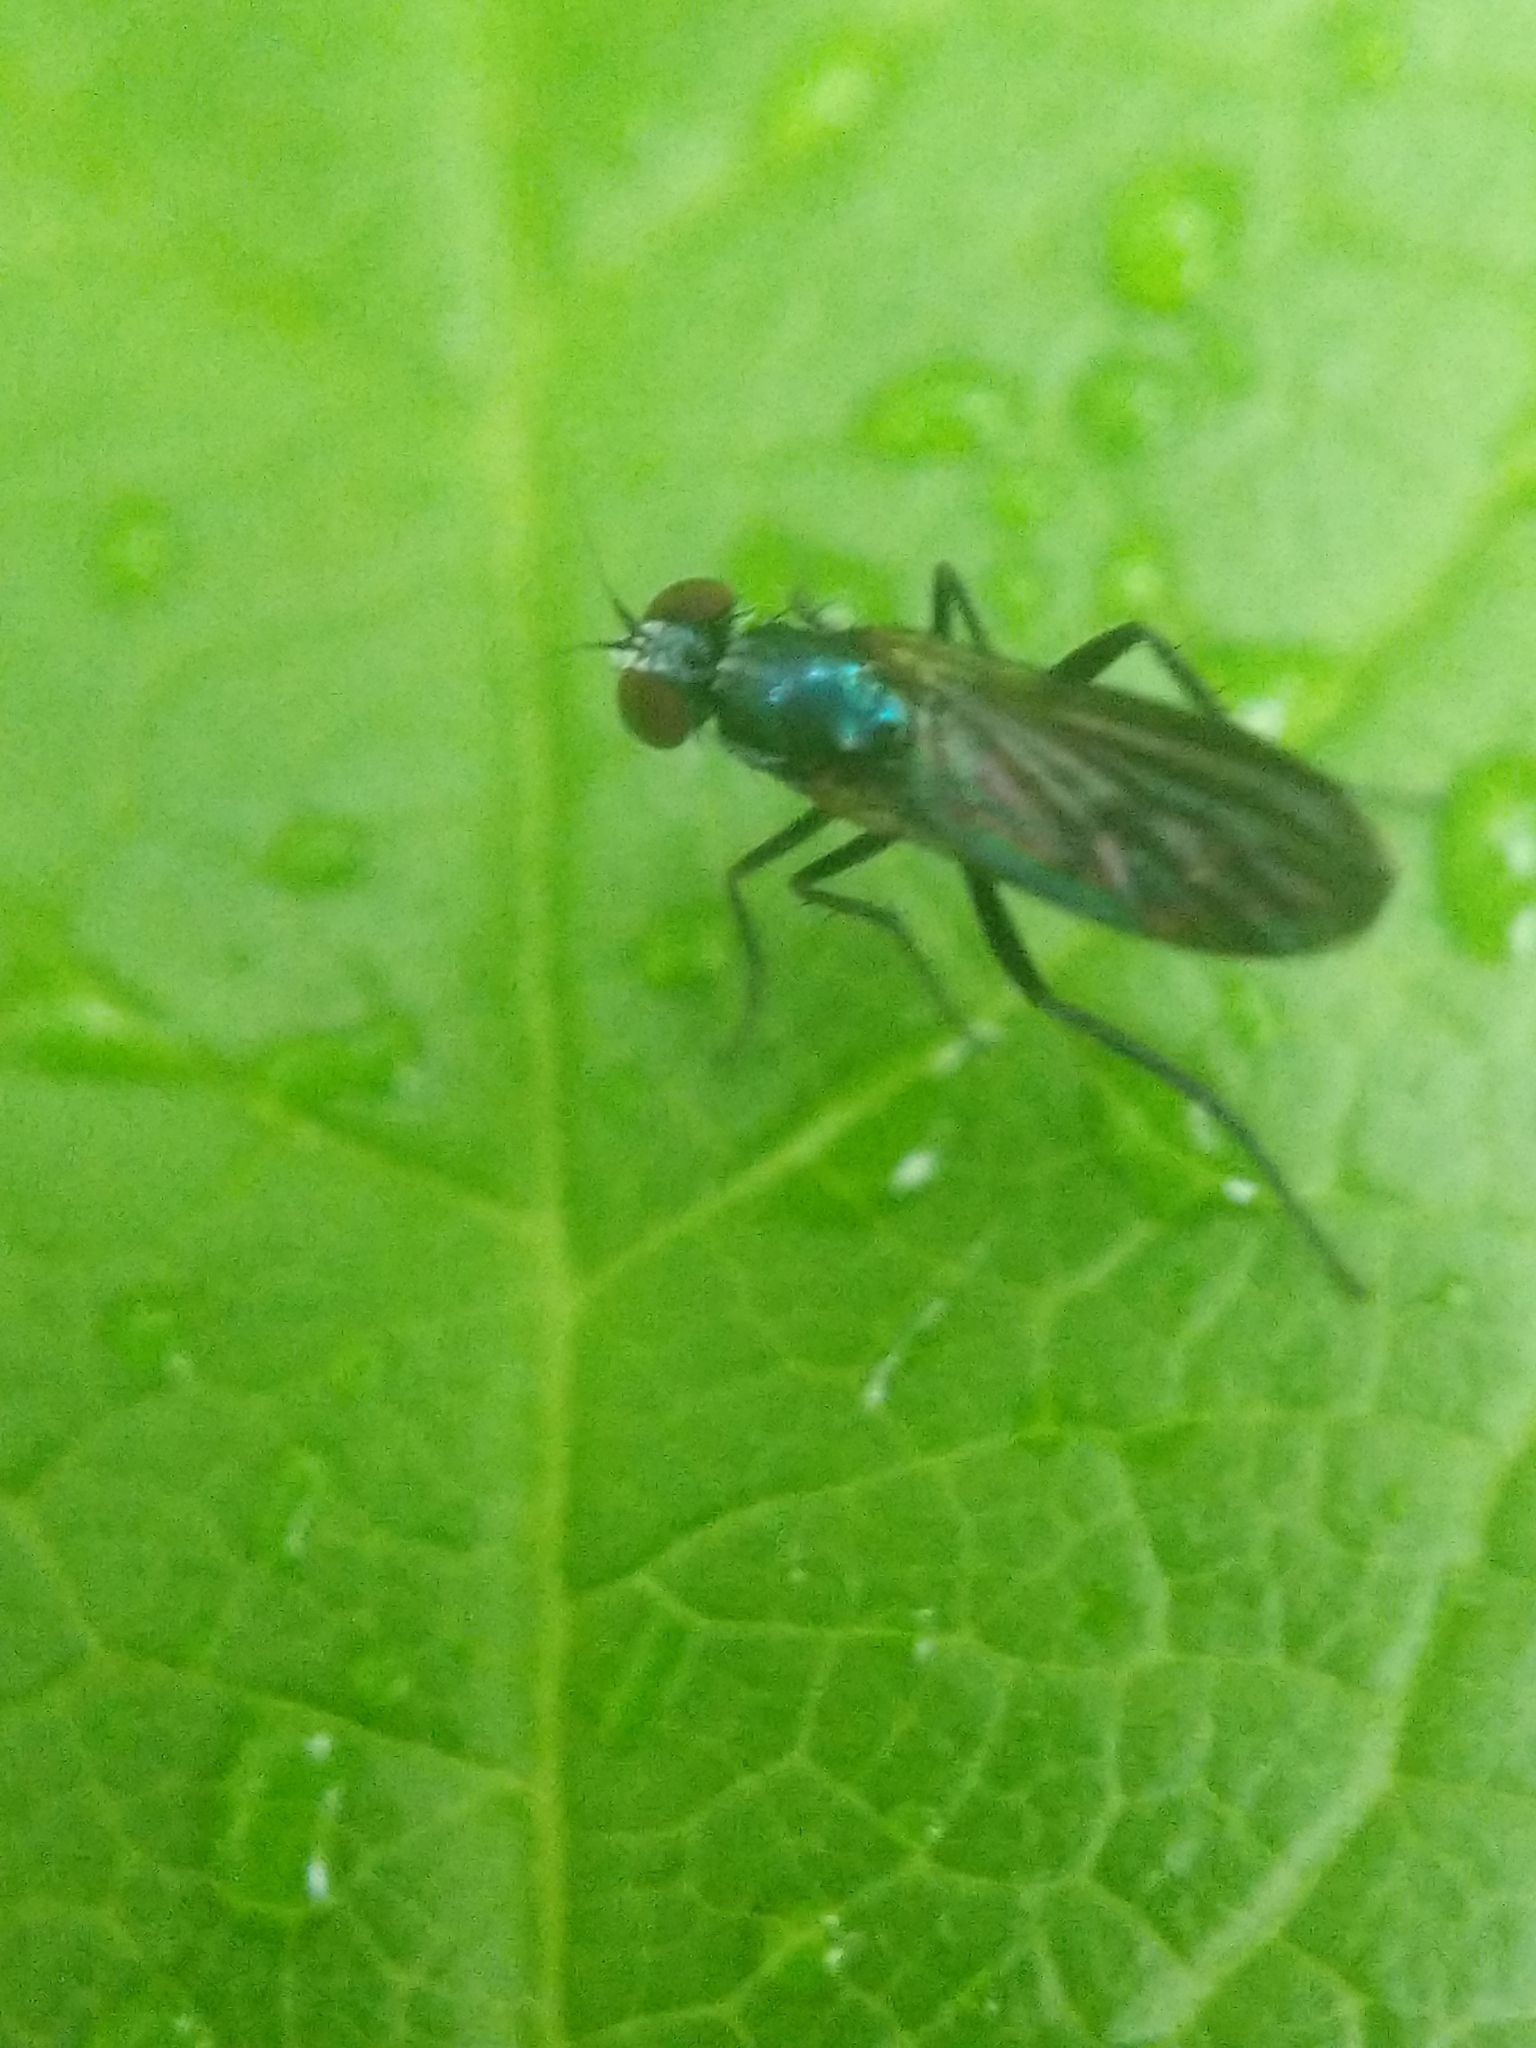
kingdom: Animalia
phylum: Arthropoda
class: Insecta
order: Diptera
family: Dolichopodidae
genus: Rhaphium
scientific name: Rhaphium melampus
